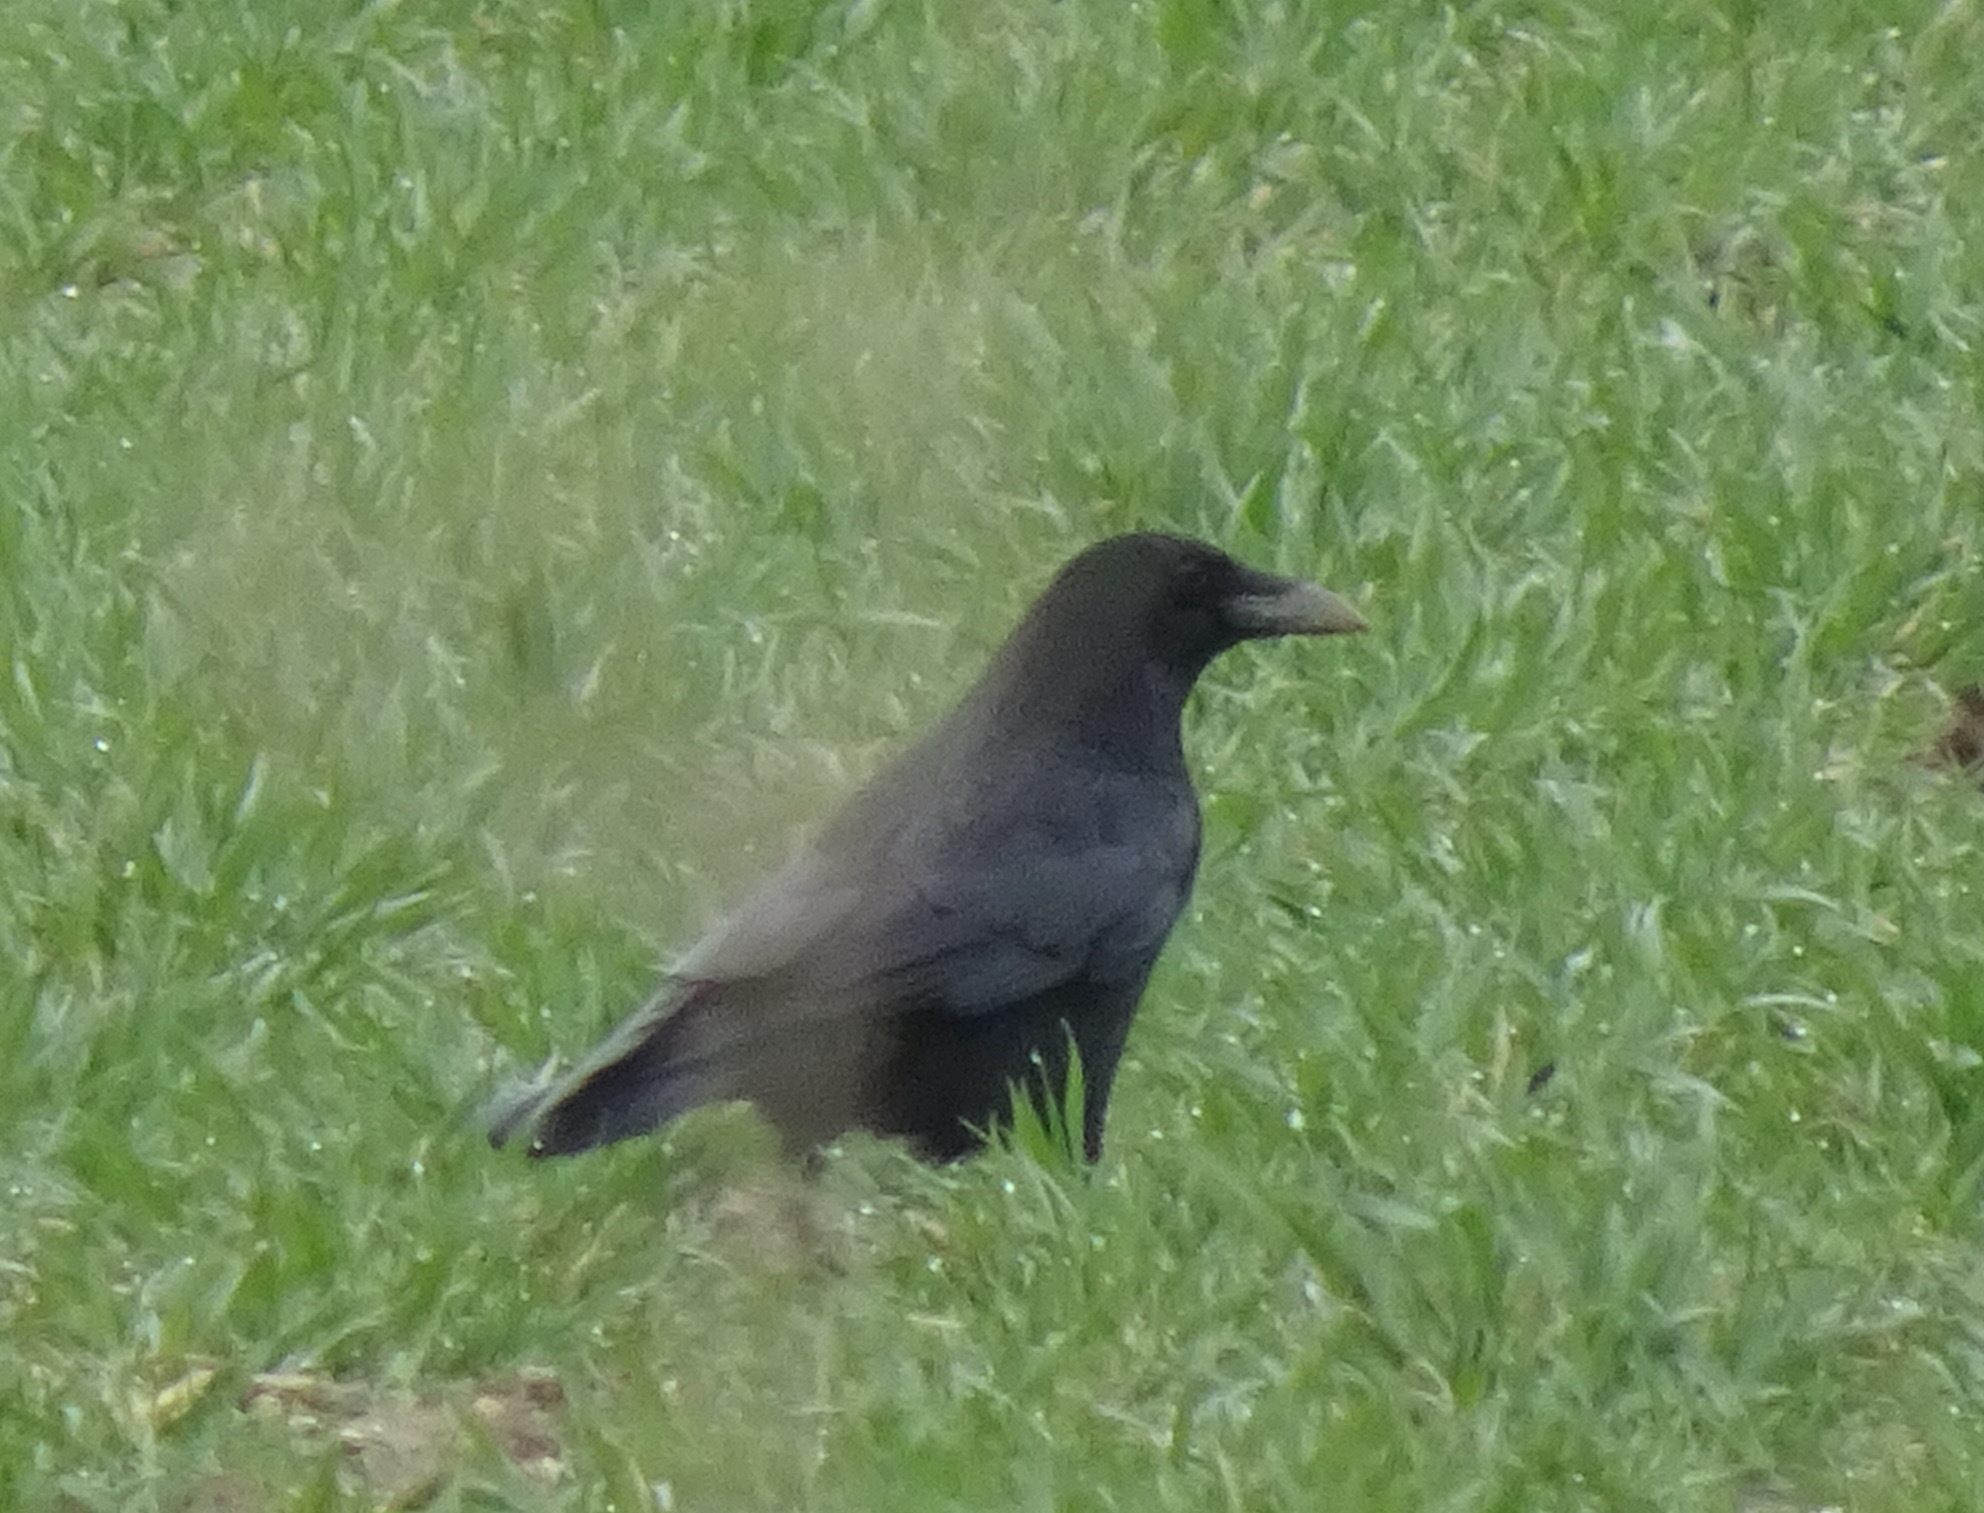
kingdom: Animalia
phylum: Chordata
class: Aves
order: Passeriformes
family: Corvidae
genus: Corvus
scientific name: Corvus corone
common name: Carrion crow
